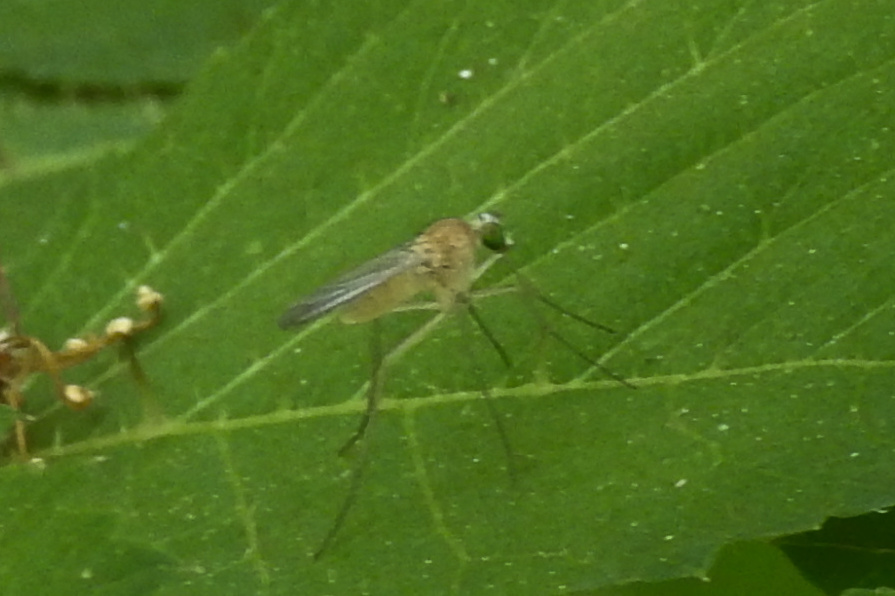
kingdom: Animalia
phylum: Arthropoda
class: Insecta
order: Diptera
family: Dolichopodidae
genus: Xanthochlorus
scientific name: Xanthochlorus helvinus
